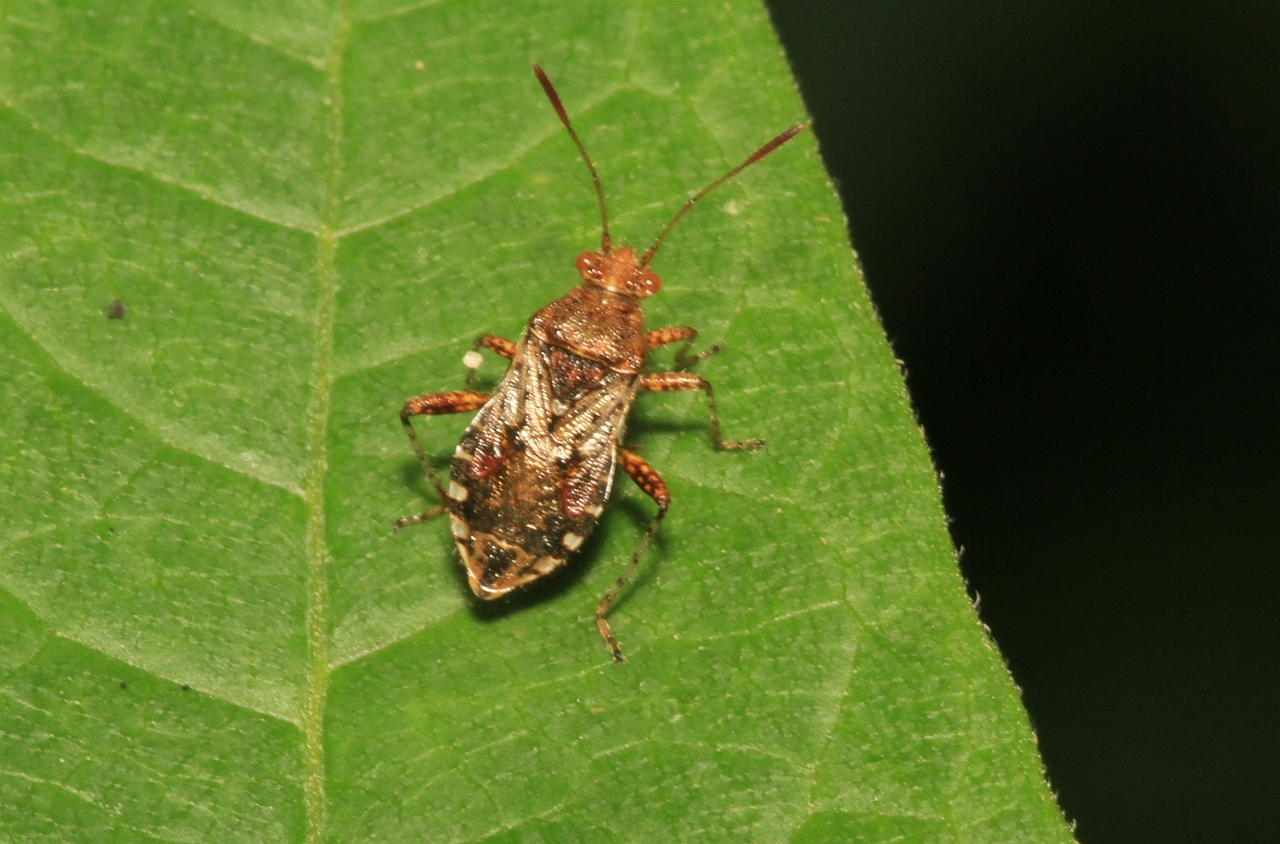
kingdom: Animalia
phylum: Arthropoda
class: Insecta
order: Hemiptera
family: Rhopalidae
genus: Rhopalus
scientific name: Rhopalus subrufus
